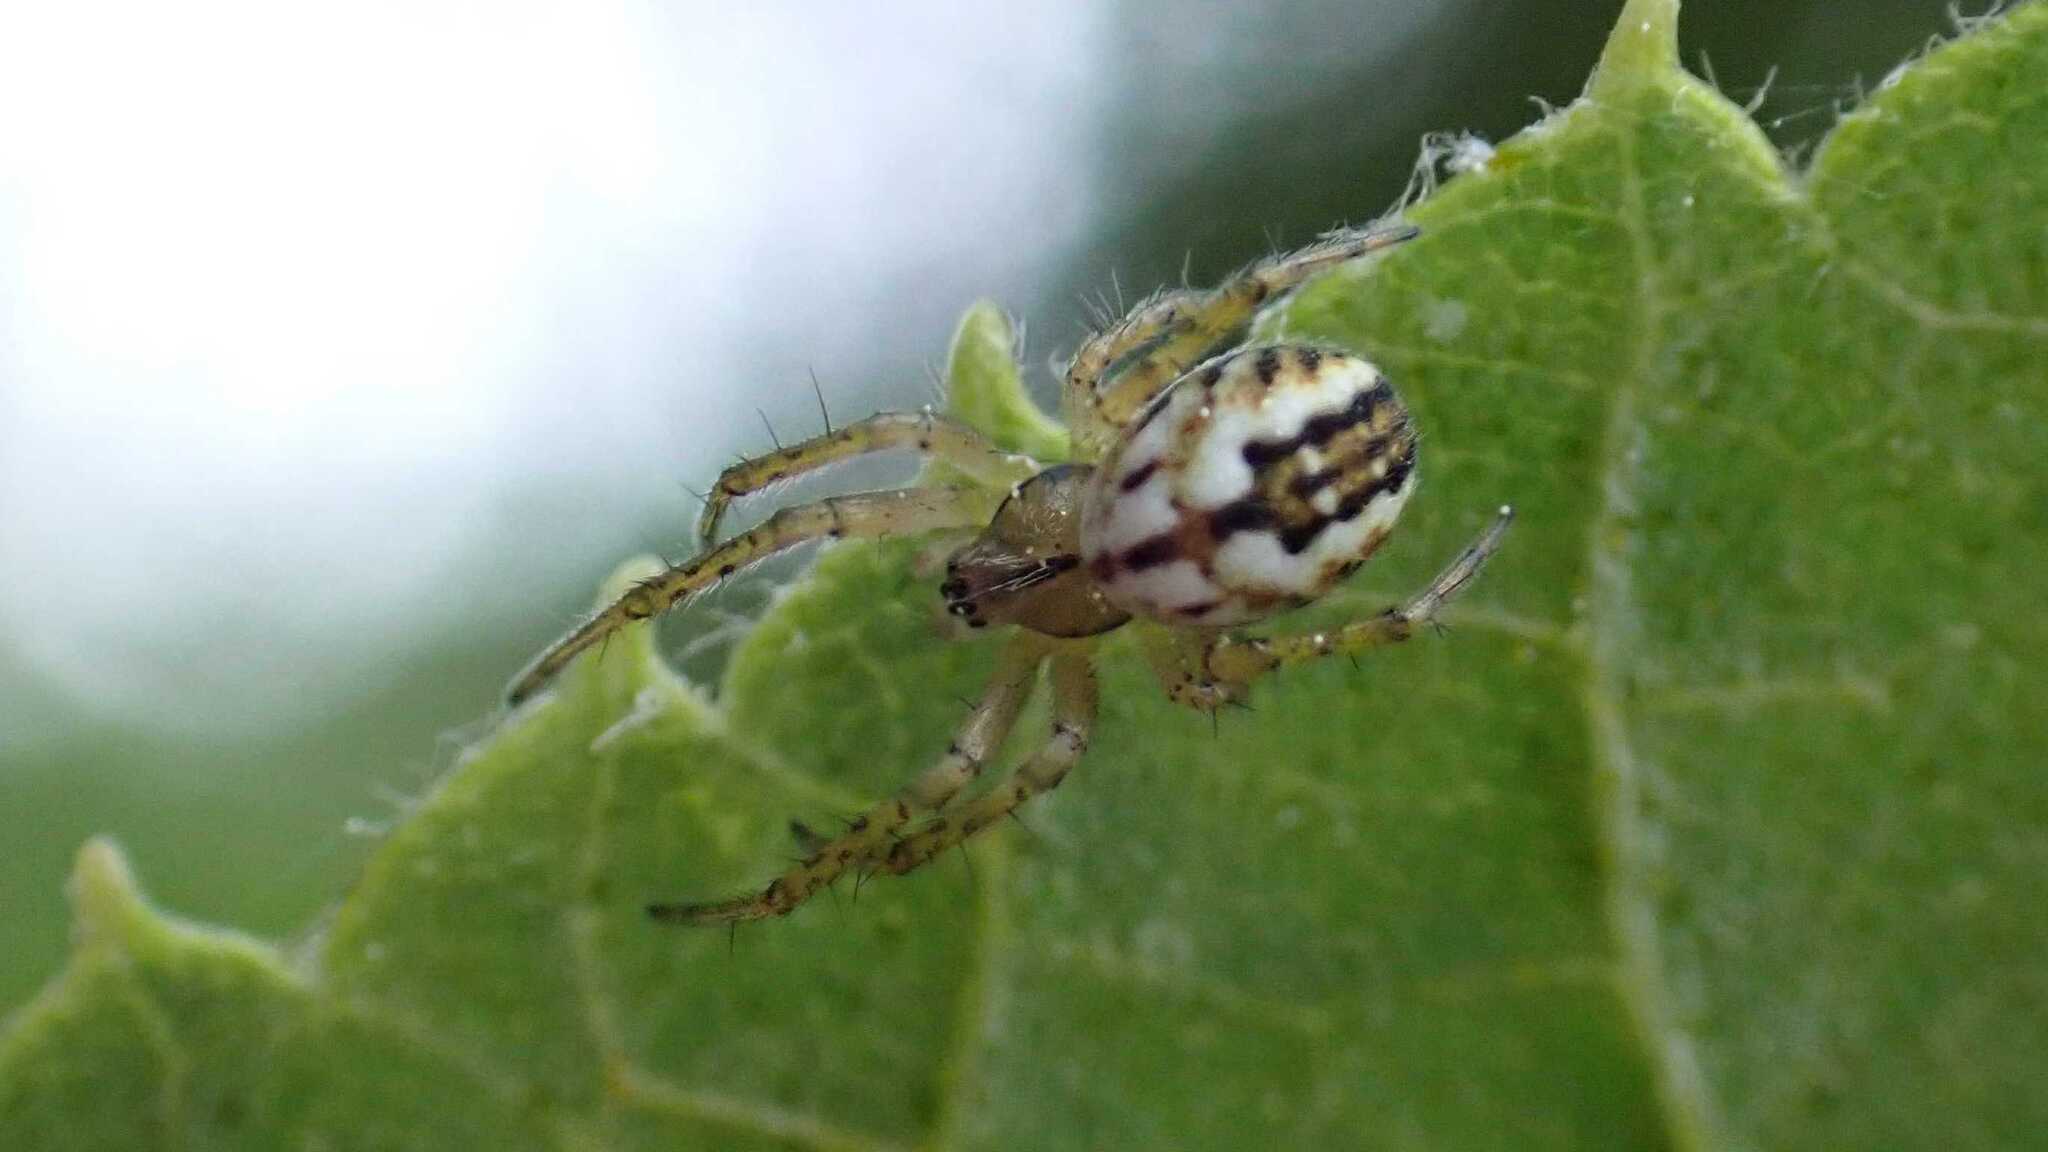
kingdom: Animalia
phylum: Arthropoda
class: Arachnida
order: Araneae
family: Araneidae
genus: Mangora
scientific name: Mangora acalypha
